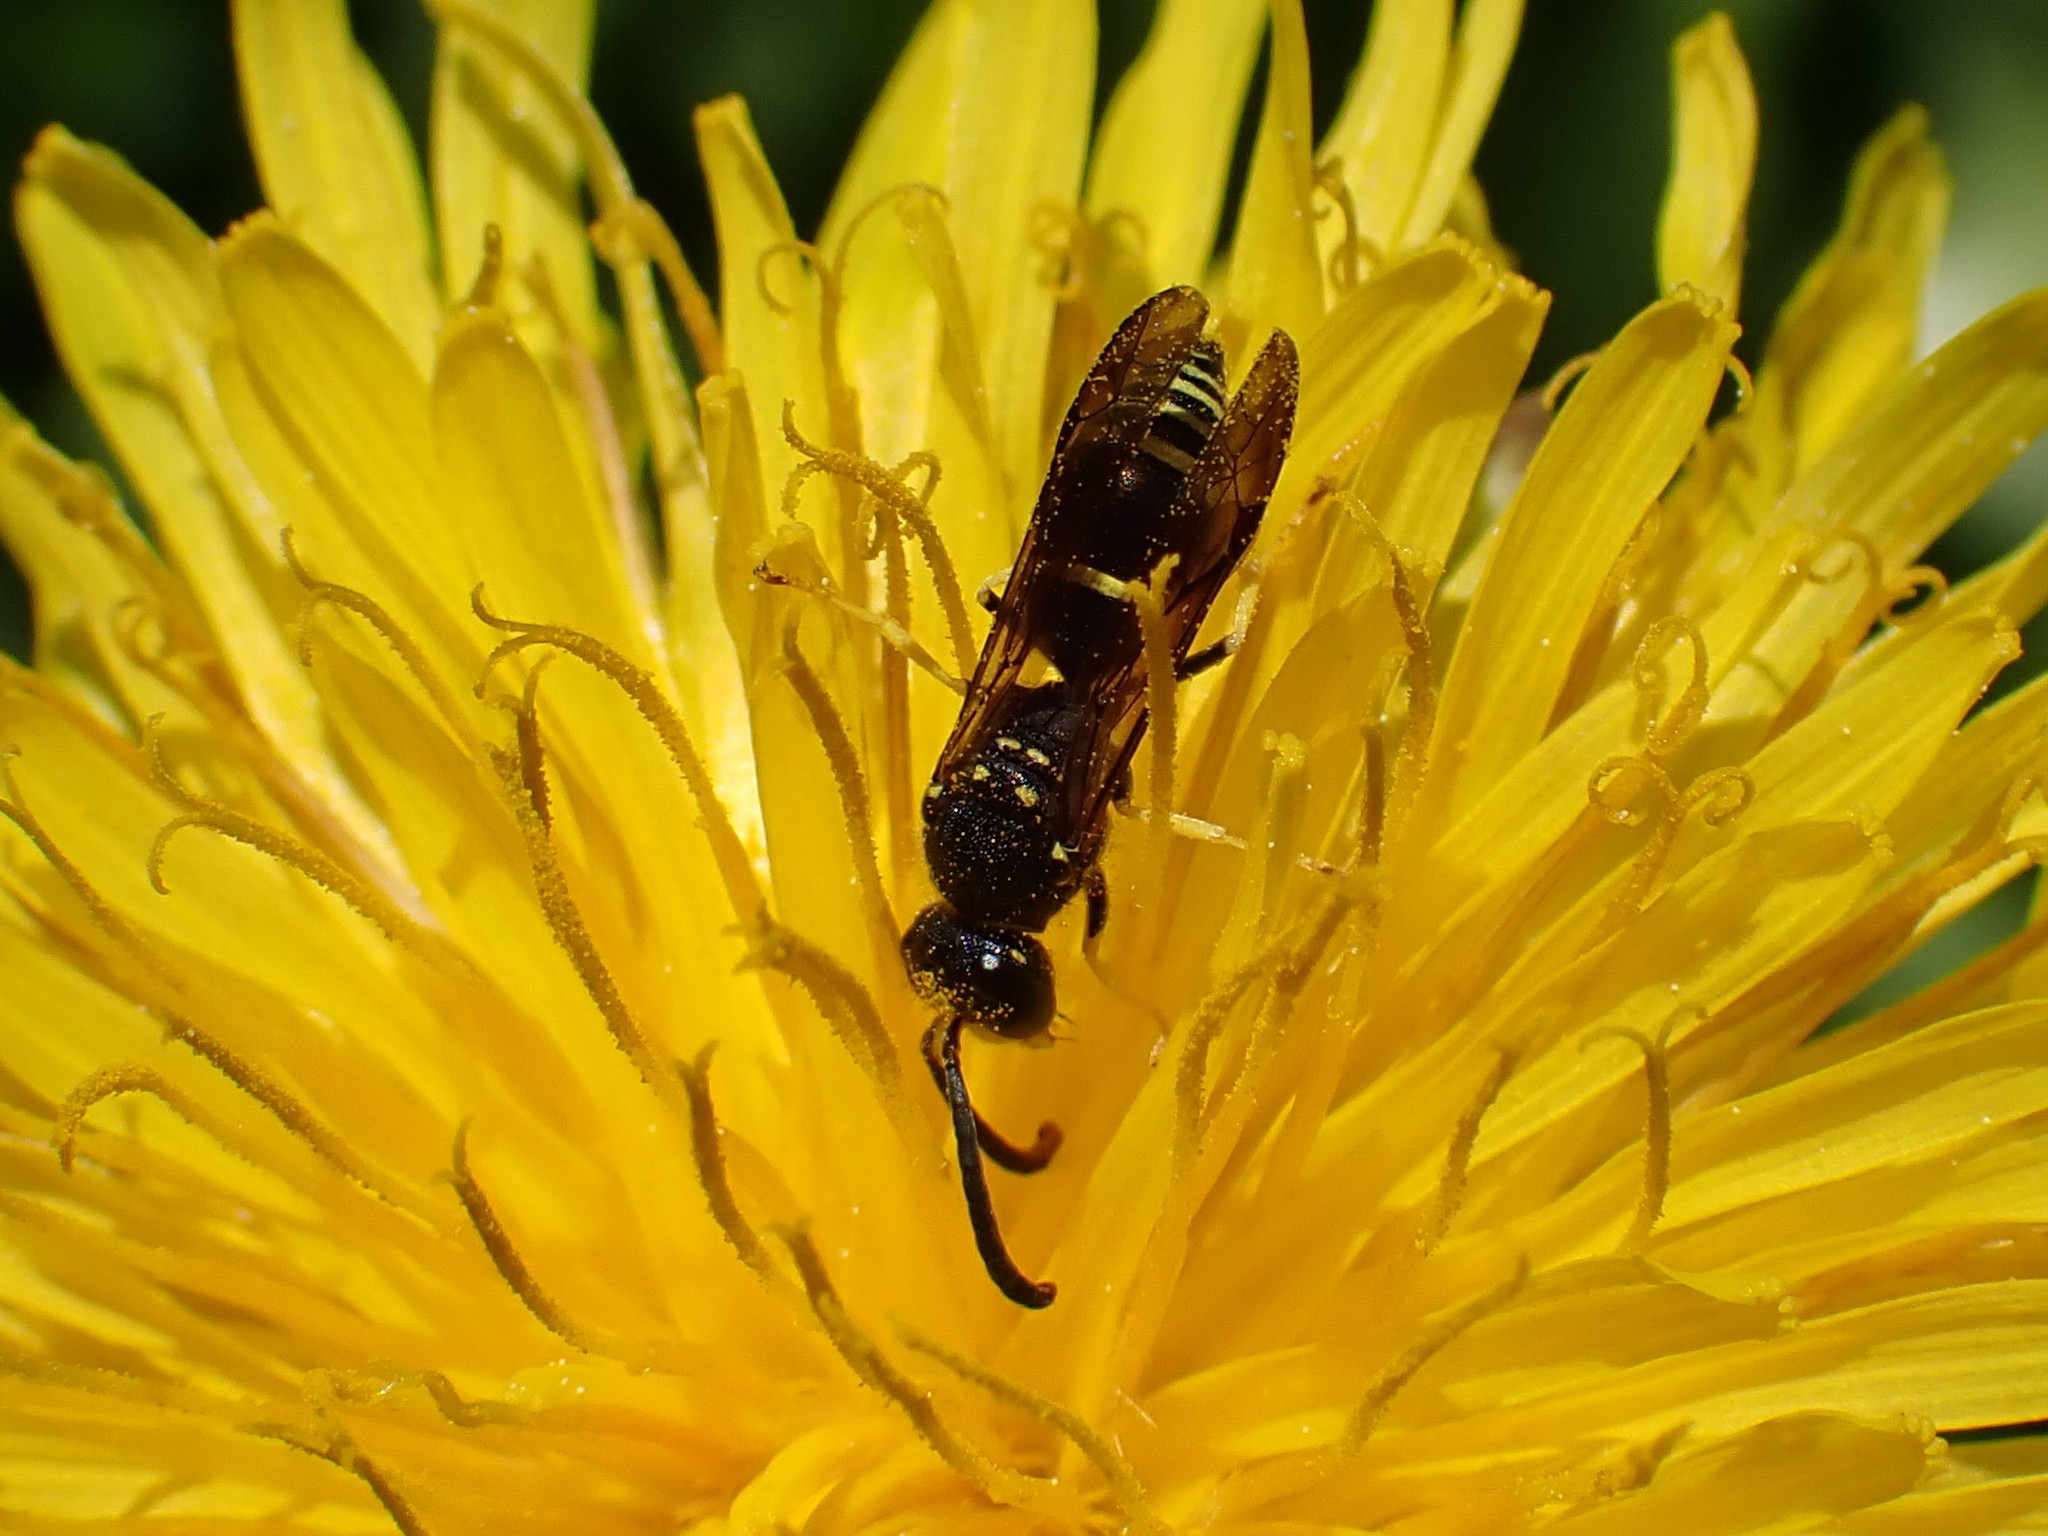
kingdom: Animalia
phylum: Arthropoda
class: Insecta
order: Hymenoptera
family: Vespidae
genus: Ancistrocerus
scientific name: Ancistrocerus adiabatus
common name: Bramble mason wasp
